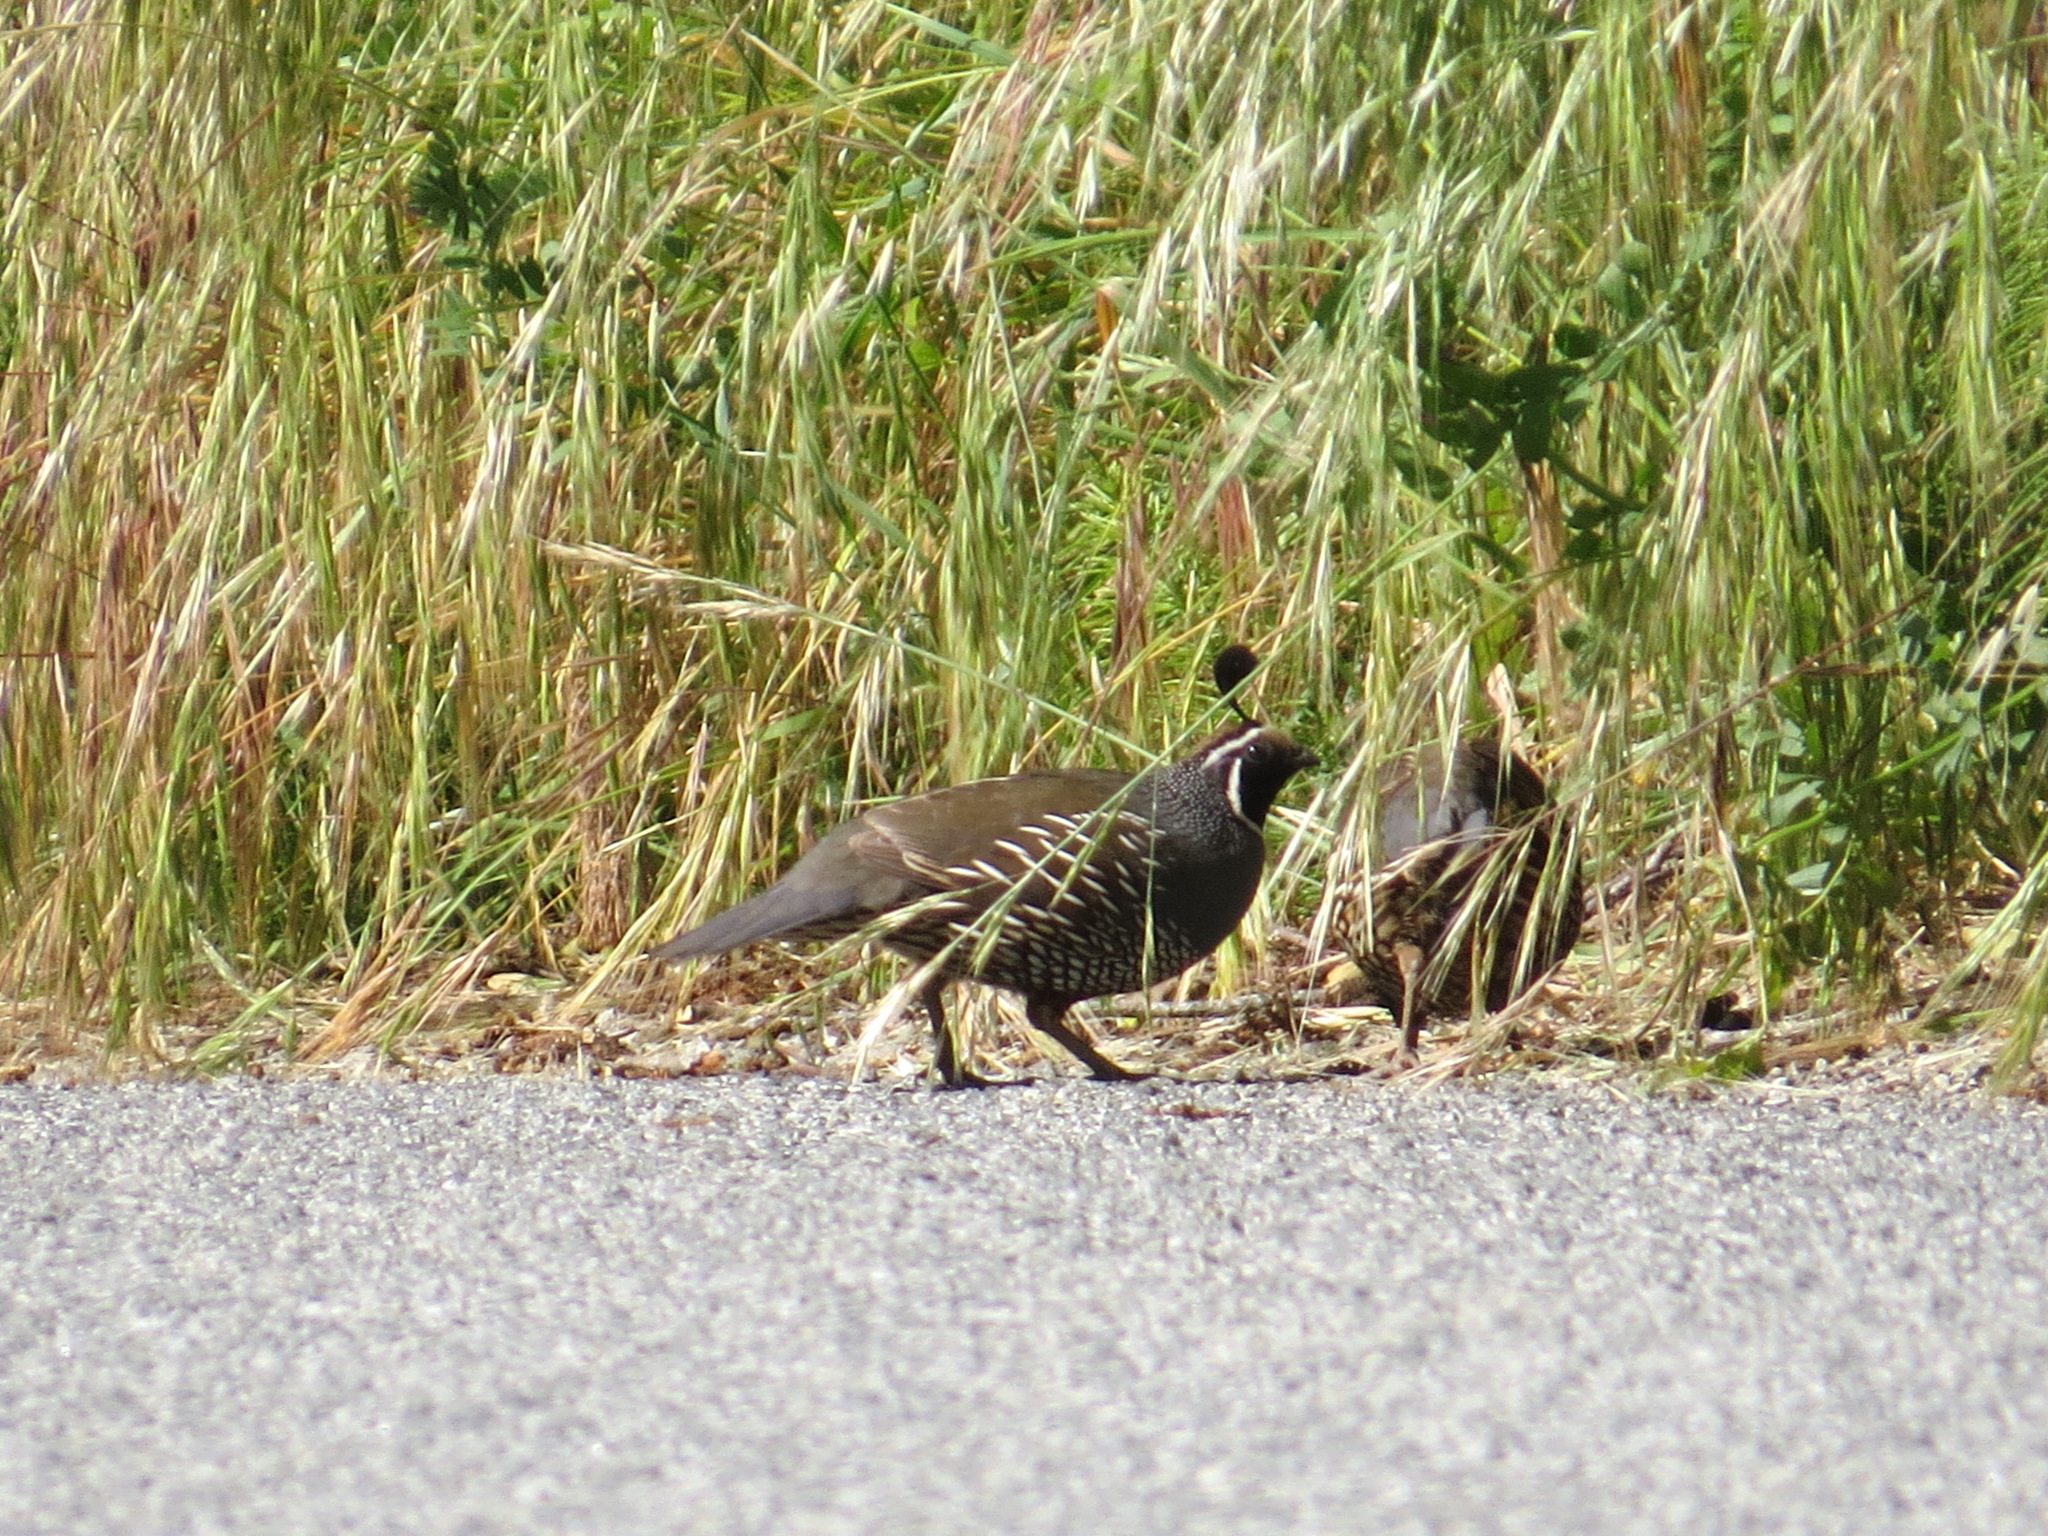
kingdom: Animalia
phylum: Chordata
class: Aves
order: Galliformes
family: Odontophoridae
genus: Callipepla
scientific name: Callipepla californica
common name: California quail
